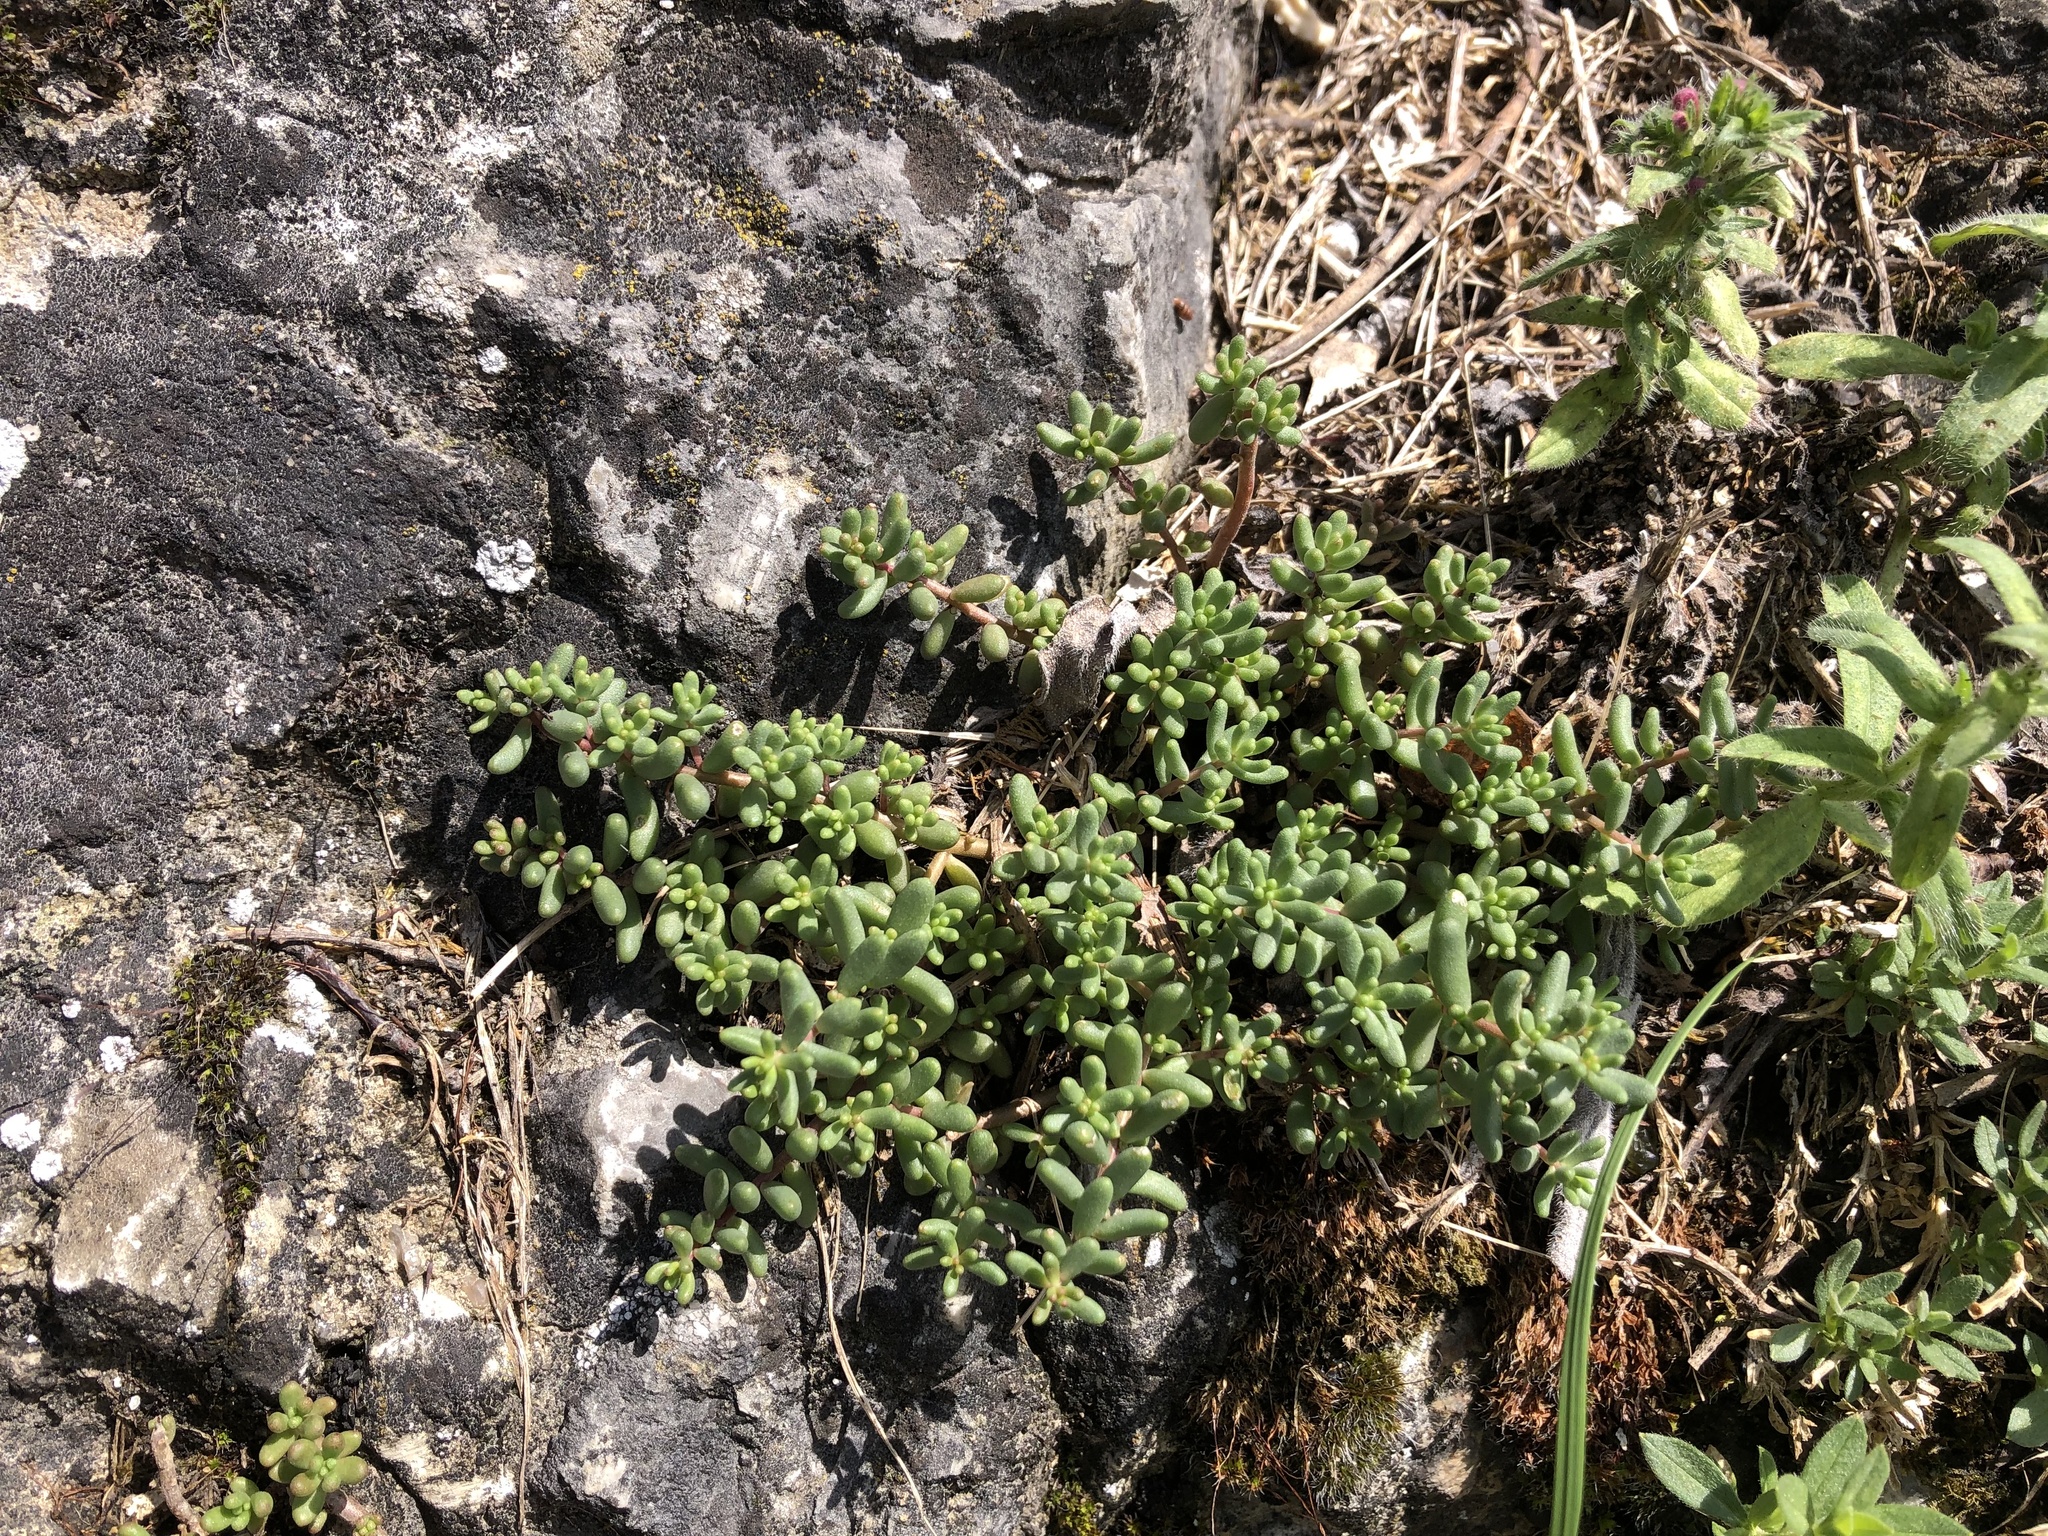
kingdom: Plantae
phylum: Tracheophyta
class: Magnoliopsida
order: Saxifragales
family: Crassulaceae
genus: Sedum
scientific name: Sedum album
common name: White stonecrop
